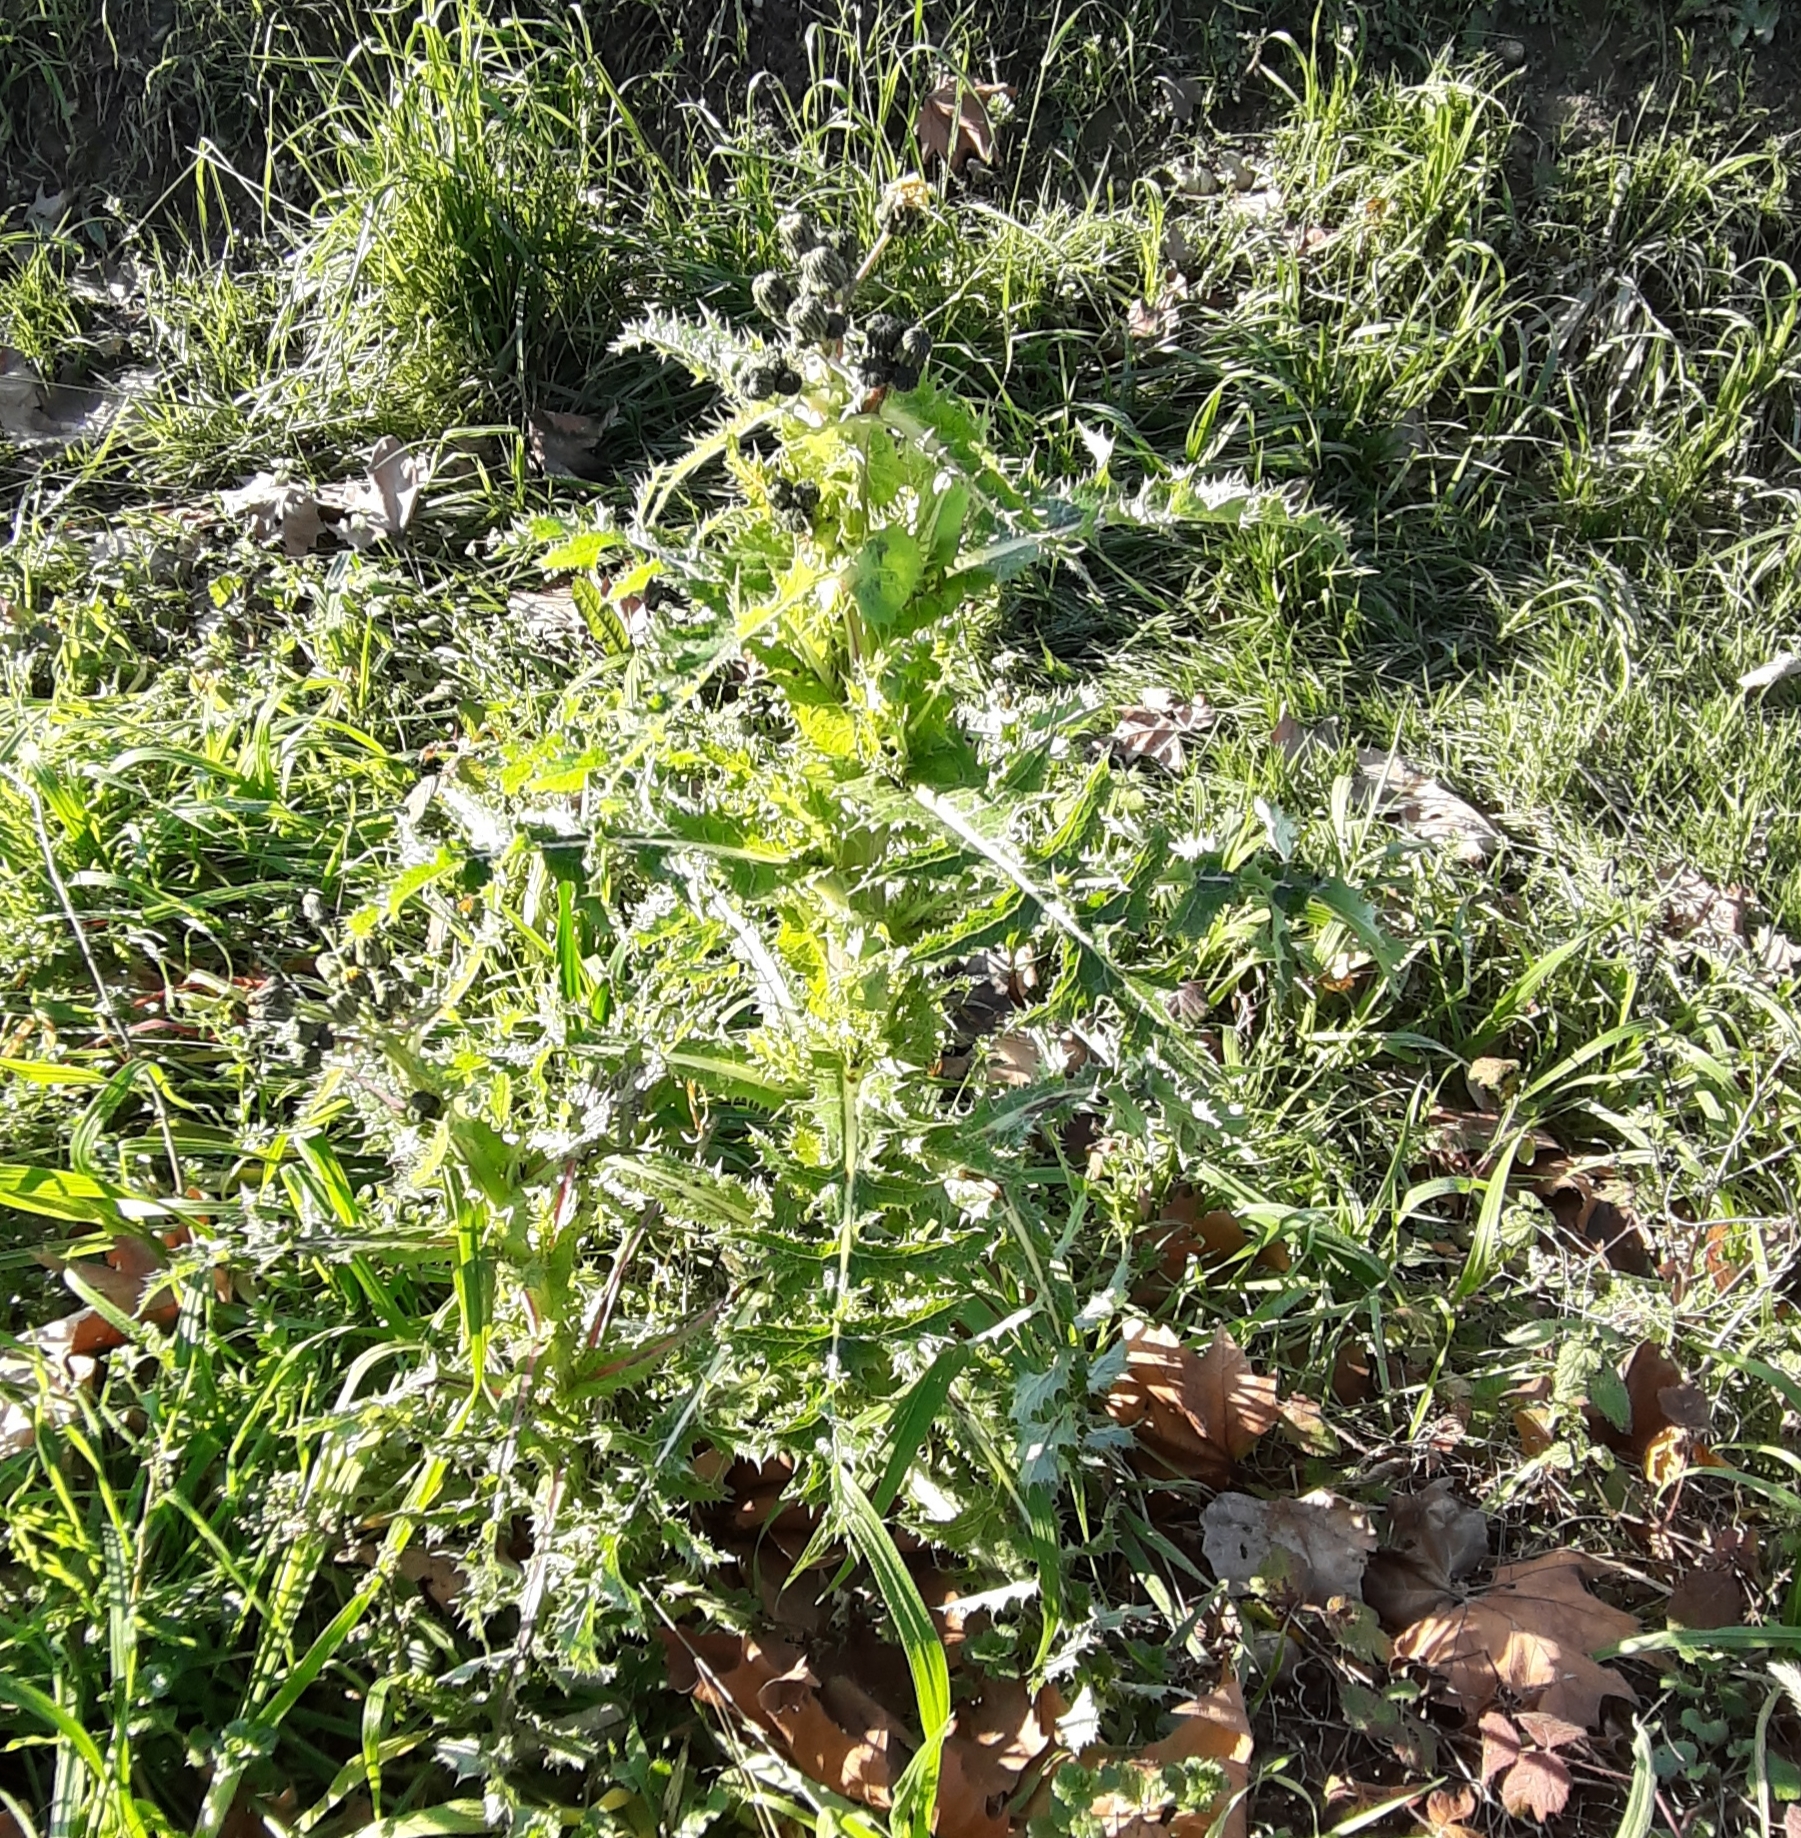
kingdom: Plantae
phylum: Tracheophyta
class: Magnoliopsida
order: Asterales
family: Asteraceae
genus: Sonchus
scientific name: Sonchus asper
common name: Prickly sow-thistle
